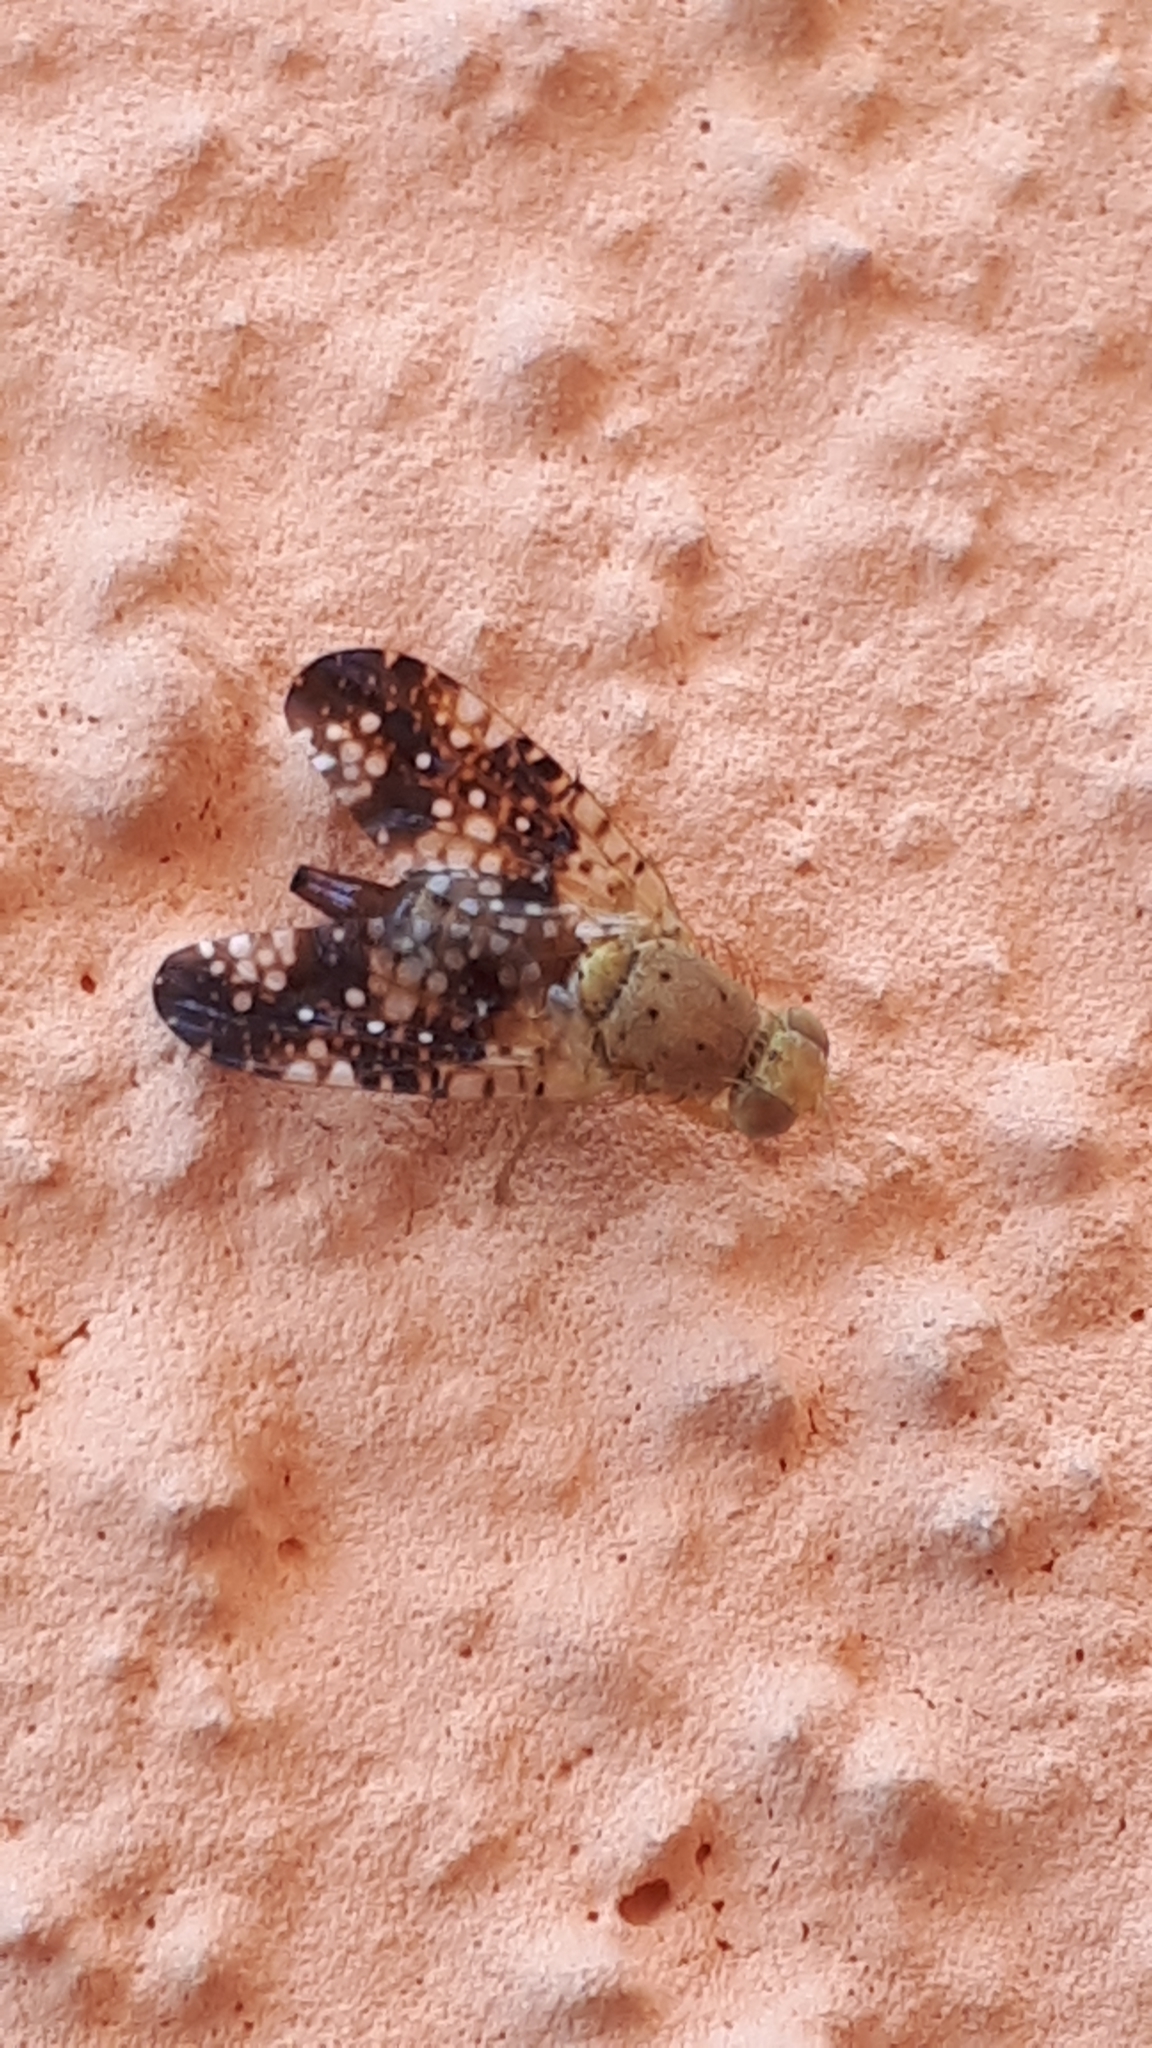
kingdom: Animalia
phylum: Arthropoda
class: Insecta
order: Diptera
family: Tephritidae
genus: Acinia
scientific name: Acinia corniculata
